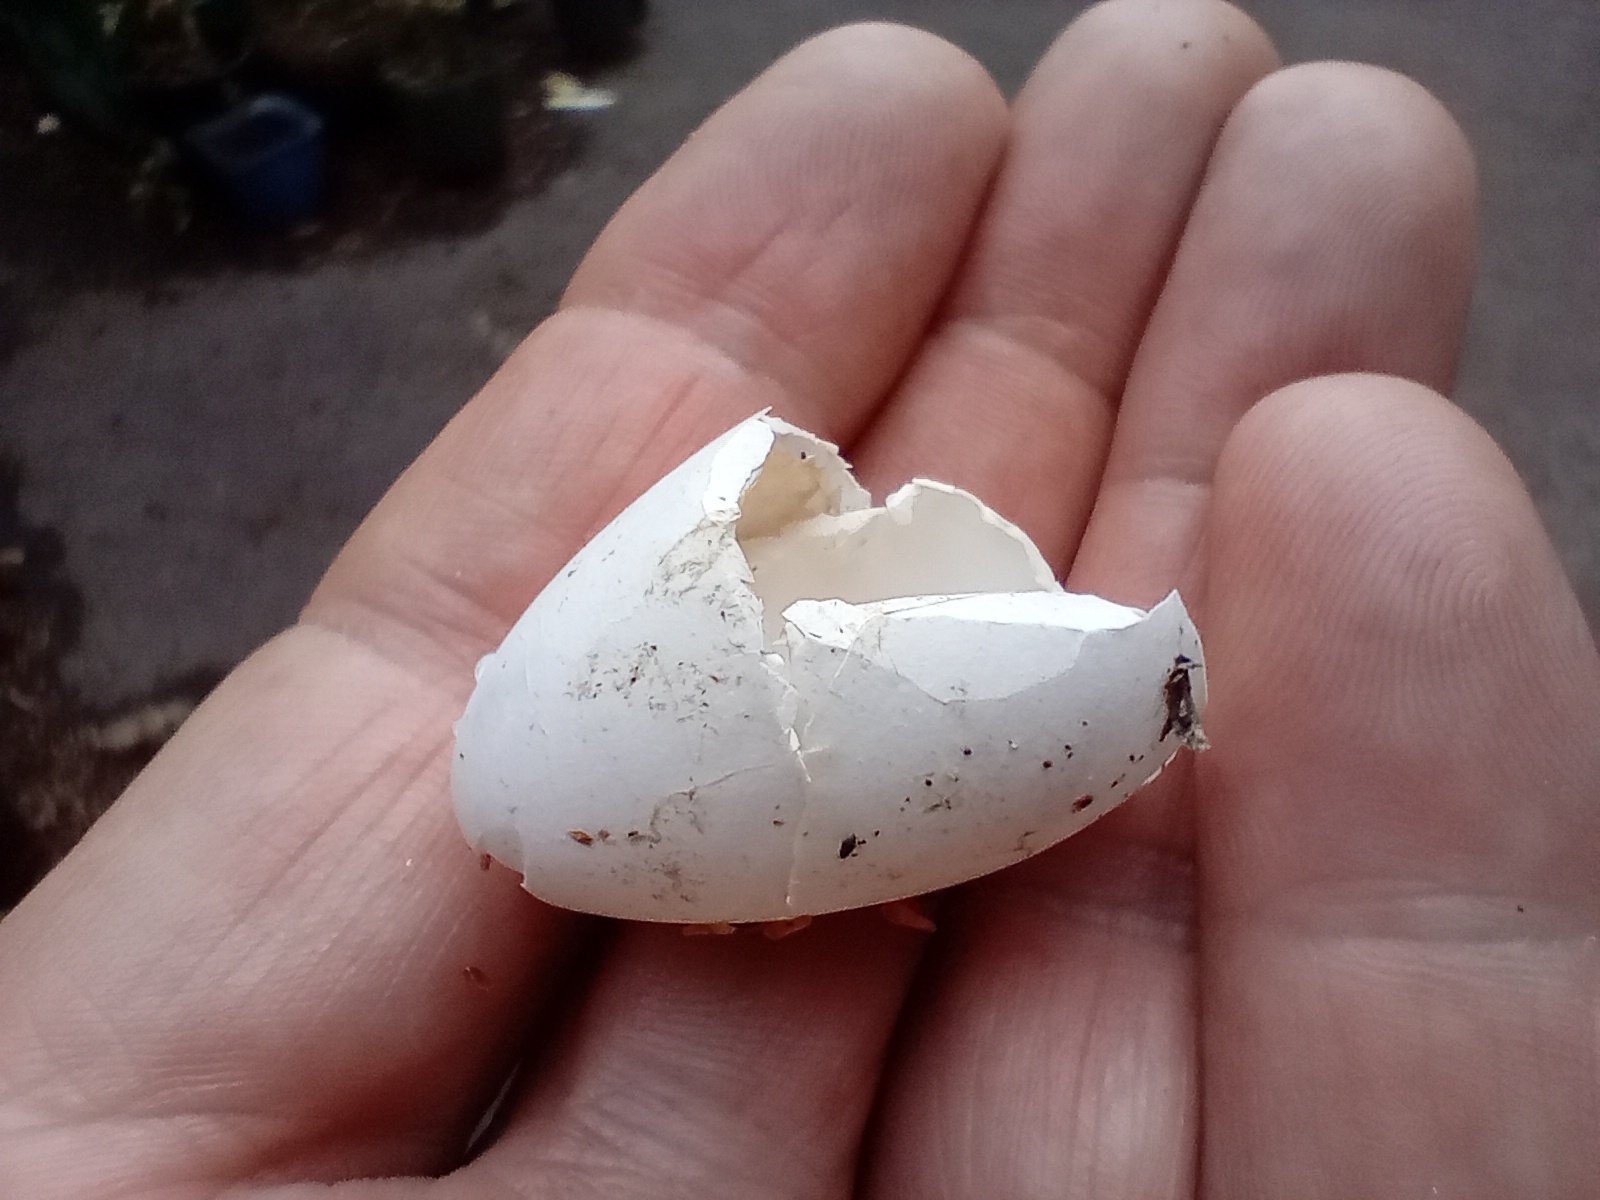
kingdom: Animalia
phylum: Chordata
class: Aves
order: Passeriformes
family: Meliphagidae
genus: Prosthemadera
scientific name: Prosthemadera novaeseelandiae
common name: Tui
